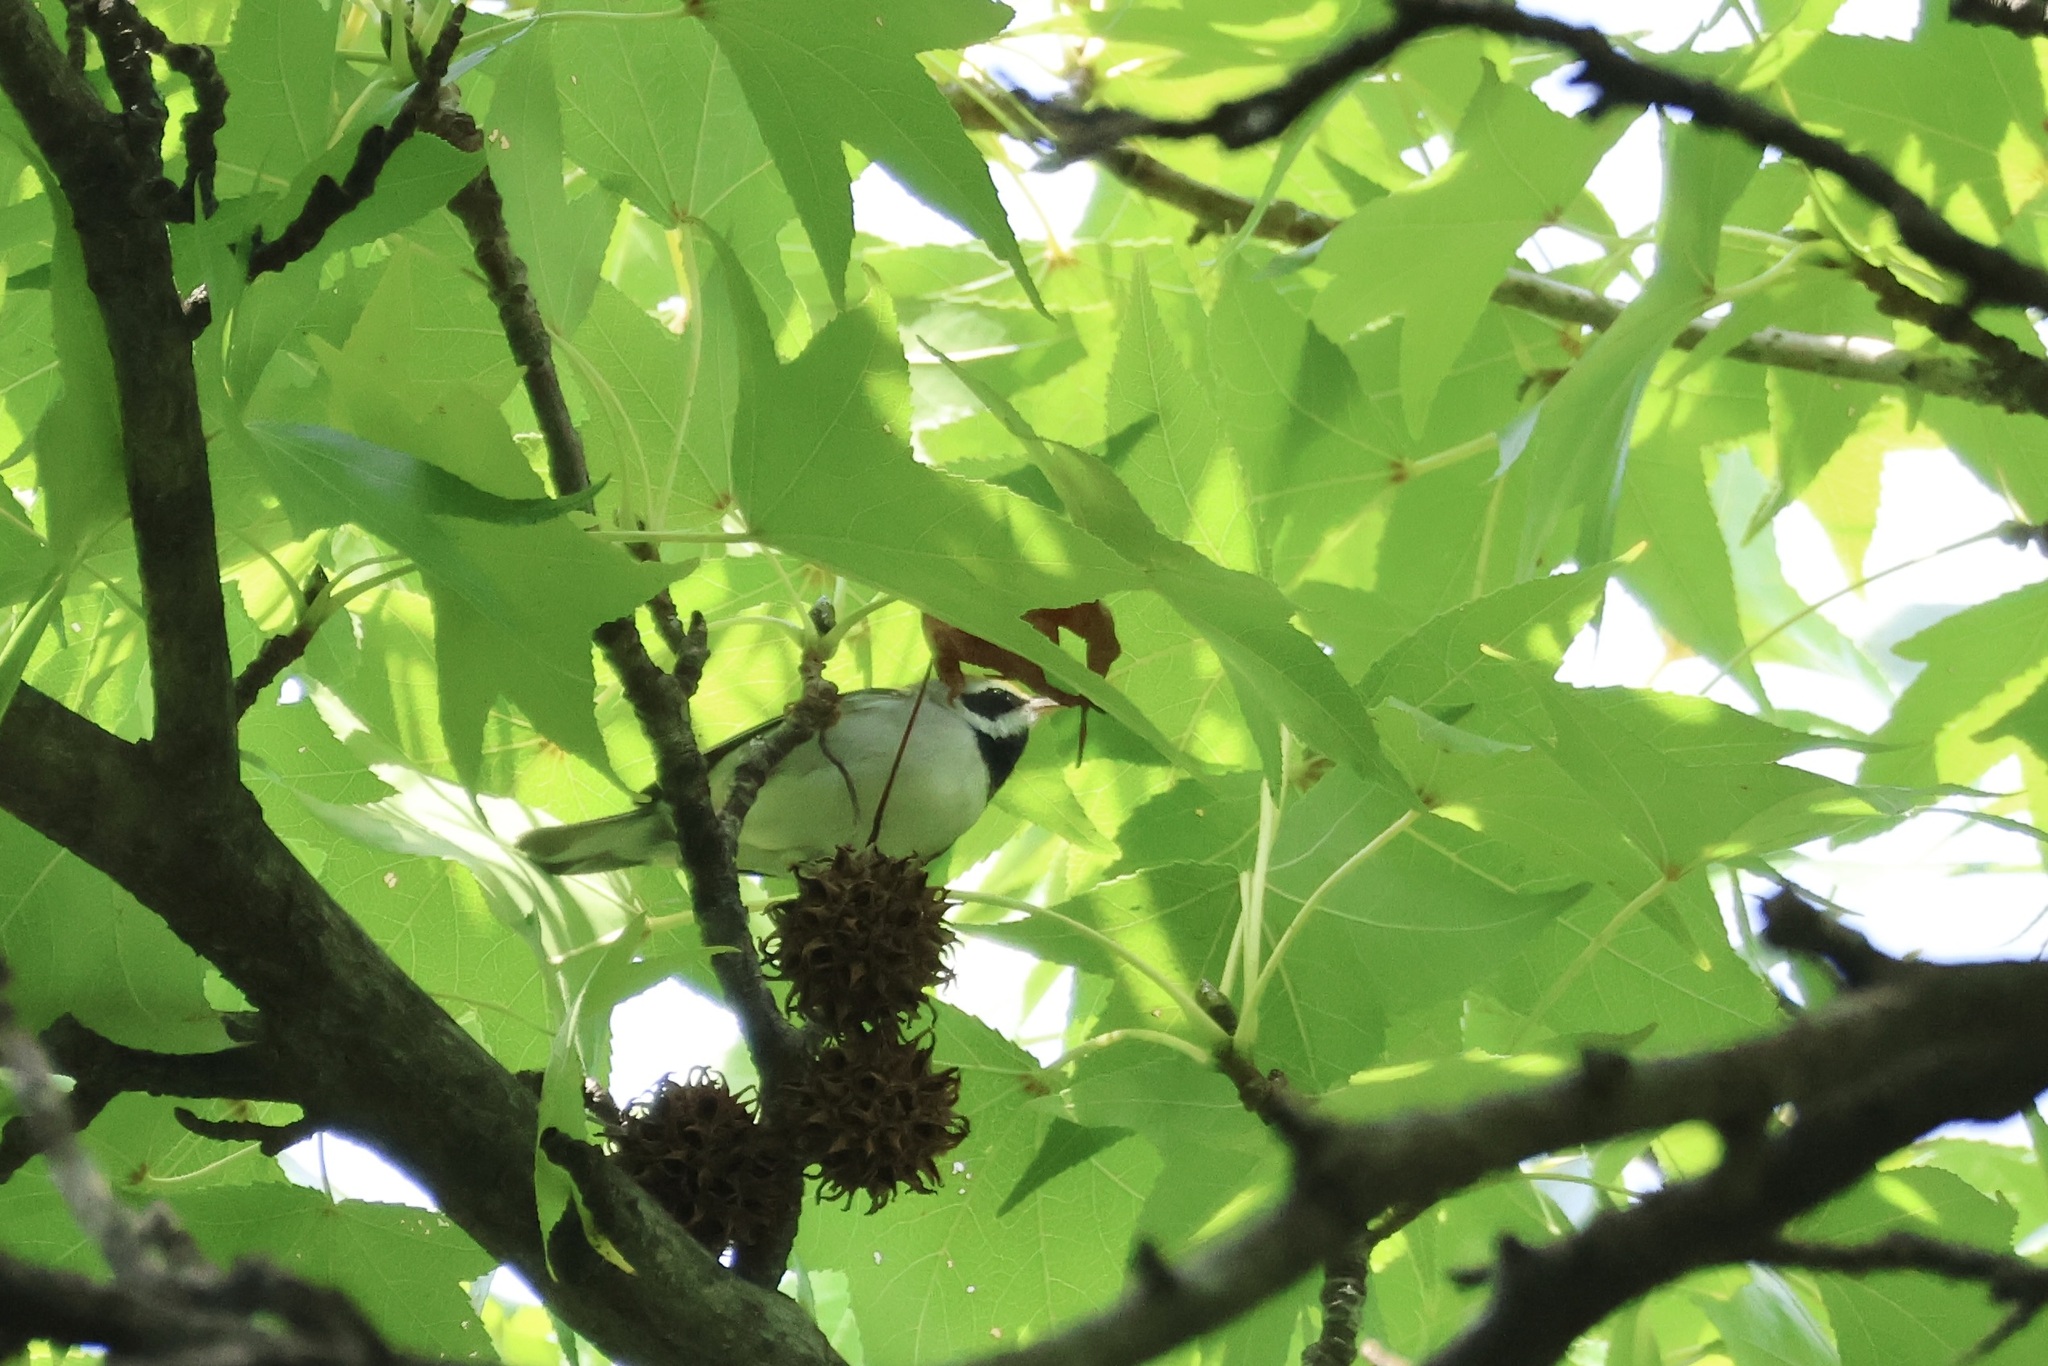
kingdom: Animalia
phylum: Chordata
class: Aves
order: Passeriformes
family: Parulidae
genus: Vermivora
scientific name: Vermivora chrysoptera
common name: Golden-winged warbler
